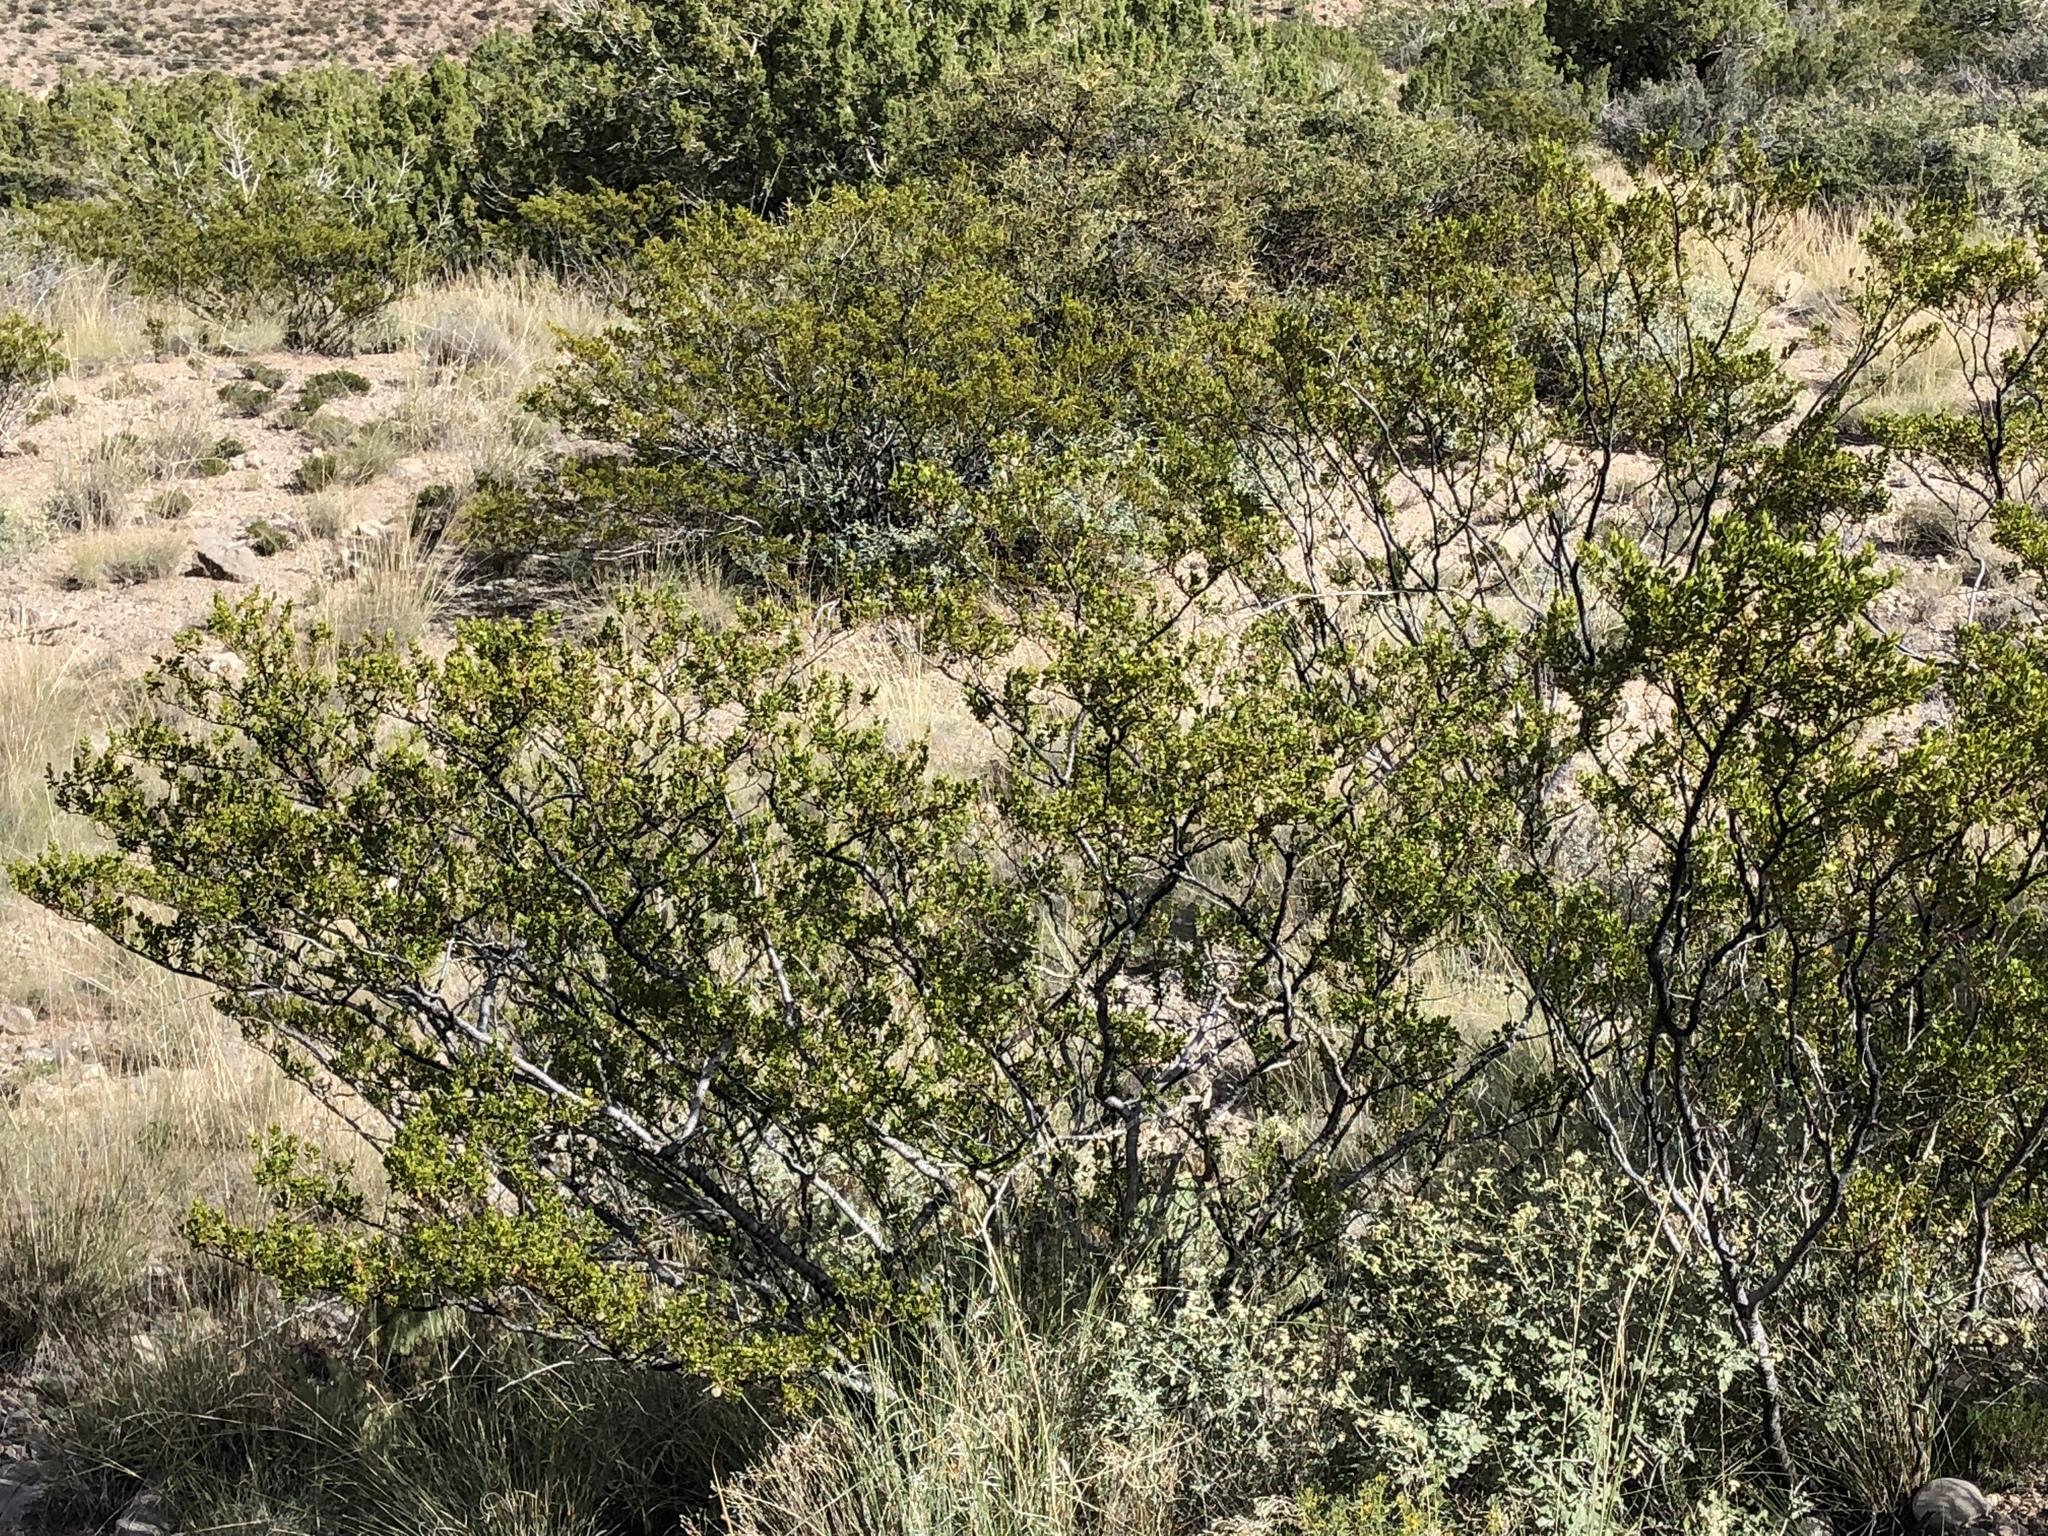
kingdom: Plantae
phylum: Tracheophyta
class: Magnoliopsida
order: Zygophyllales
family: Zygophyllaceae
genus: Larrea
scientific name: Larrea tridentata
